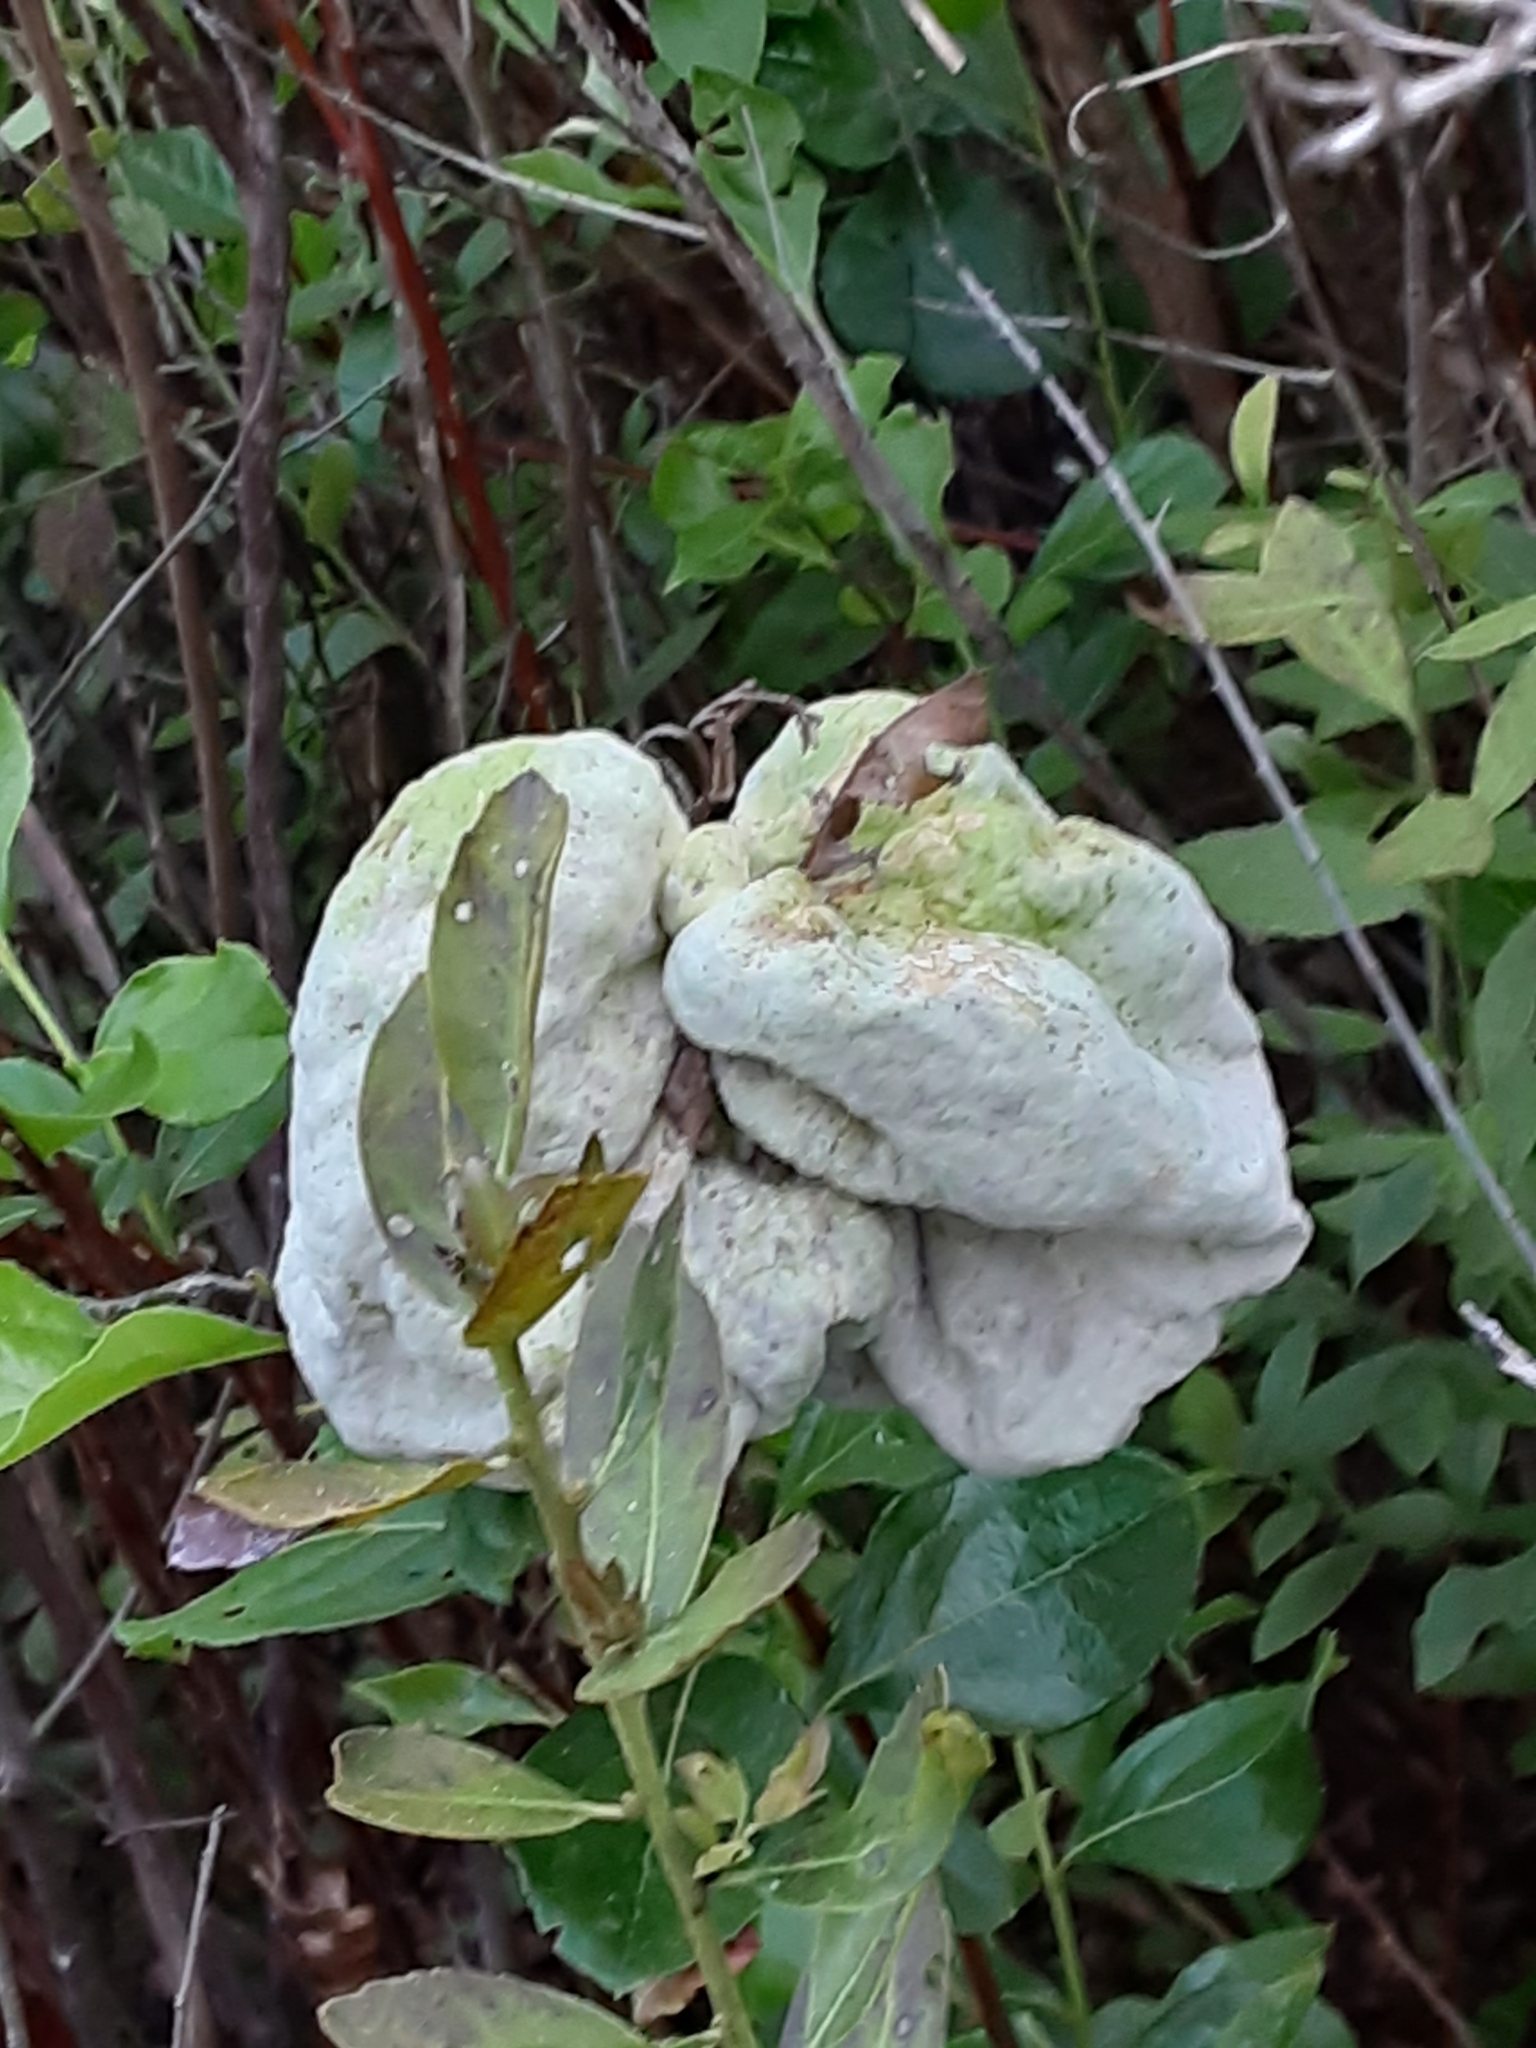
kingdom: Fungi
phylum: Basidiomycota
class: Exobasidiomycetes
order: Exobasidiales
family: Exobasidiaceae
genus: Exobasidium
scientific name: Exobasidium ferrugineae
